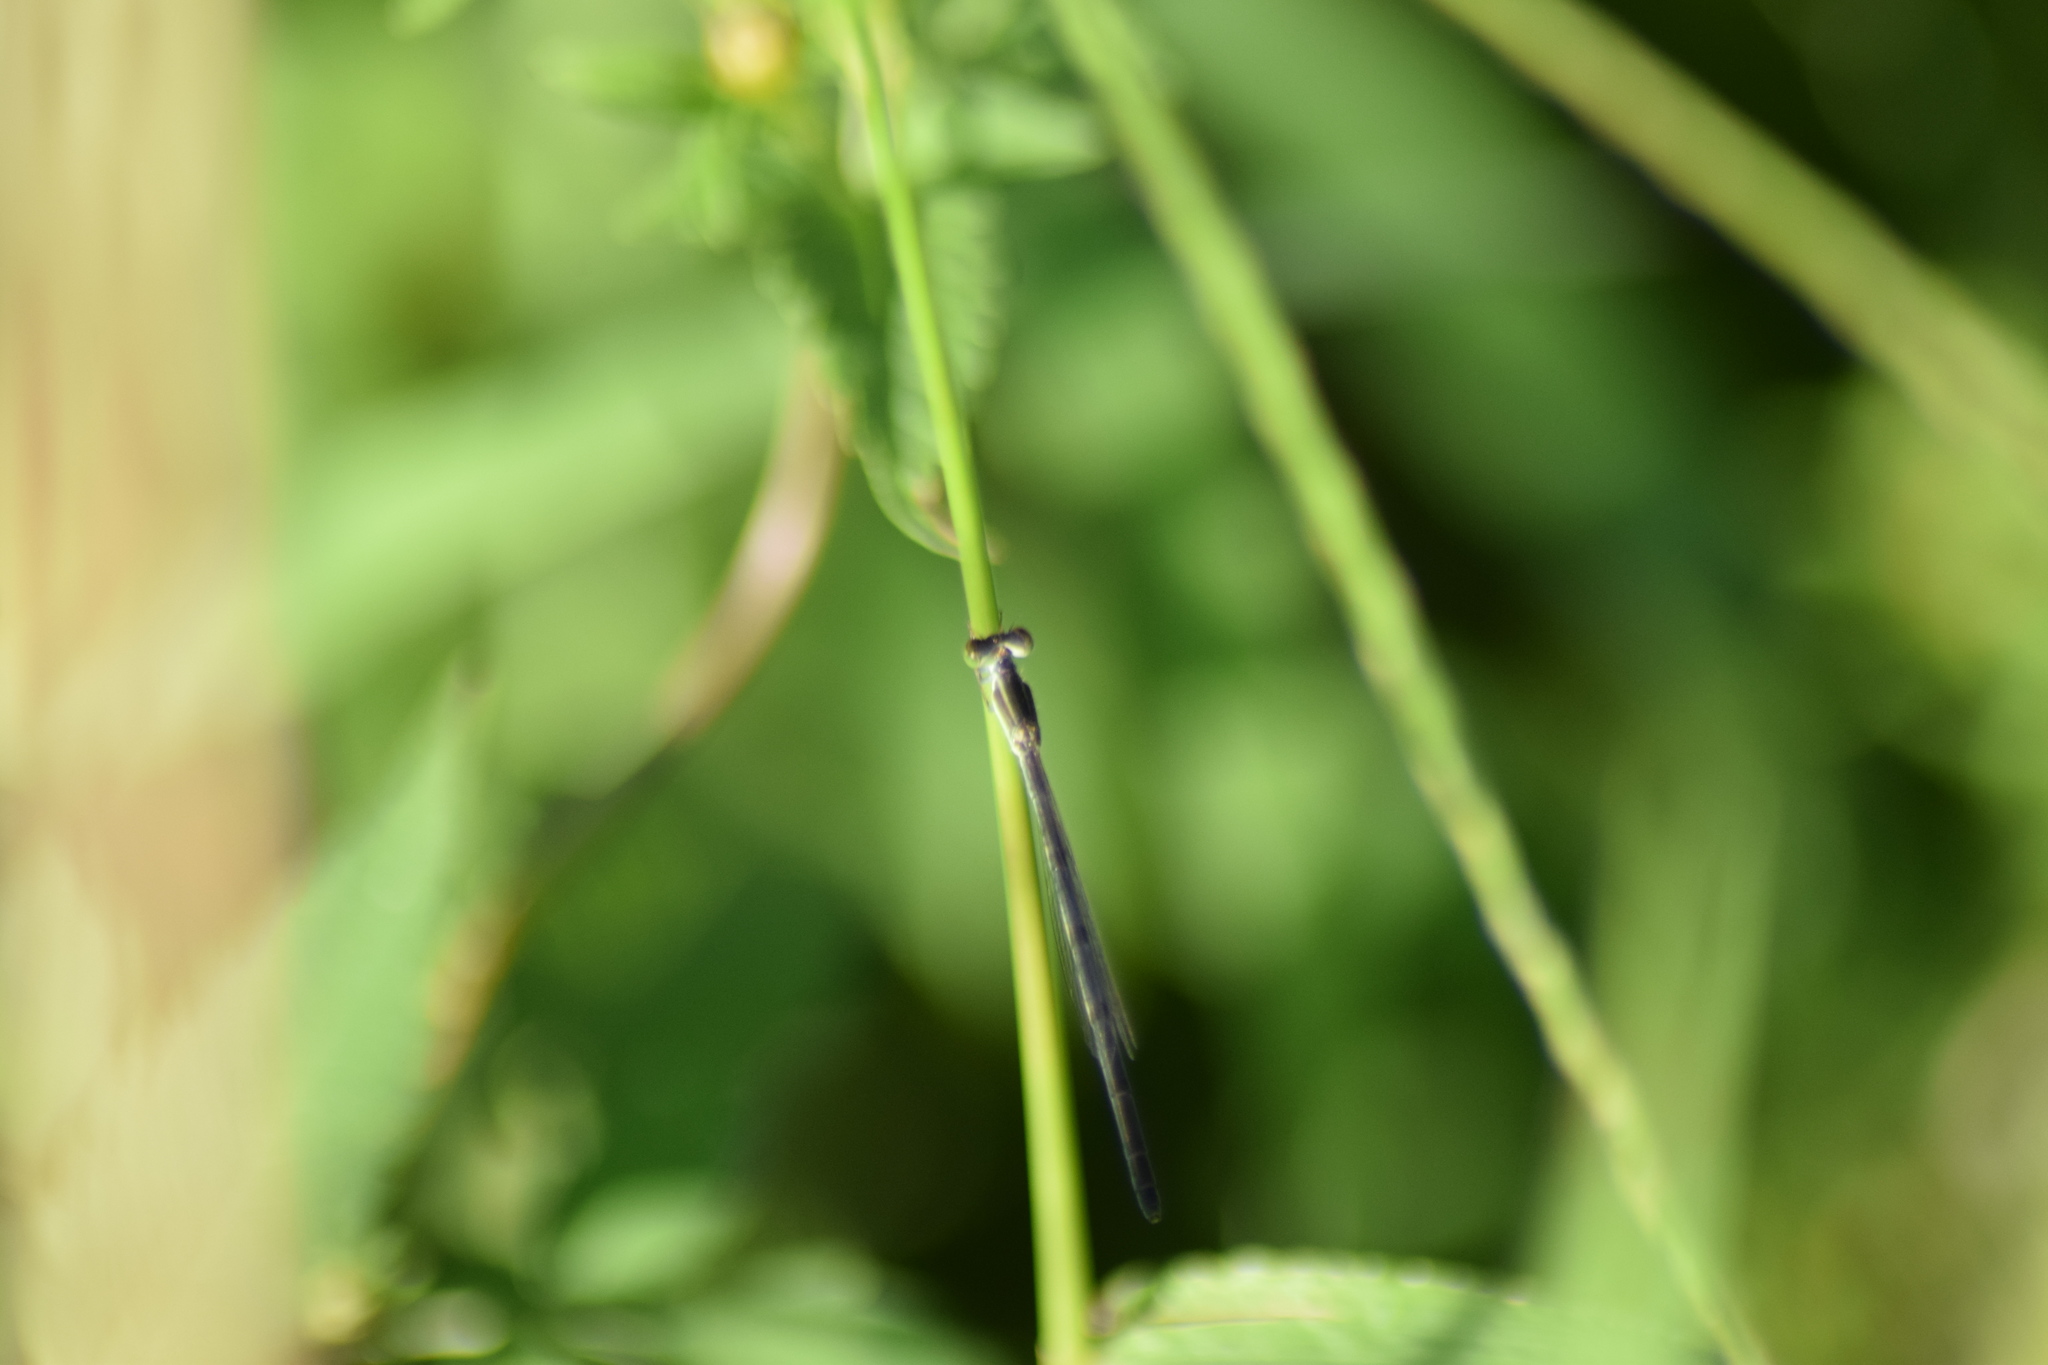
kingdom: Animalia
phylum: Arthropoda
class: Insecta
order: Odonata
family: Coenagrionidae
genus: Ischnura
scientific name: Ischnura hastata
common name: Citrine forktail
